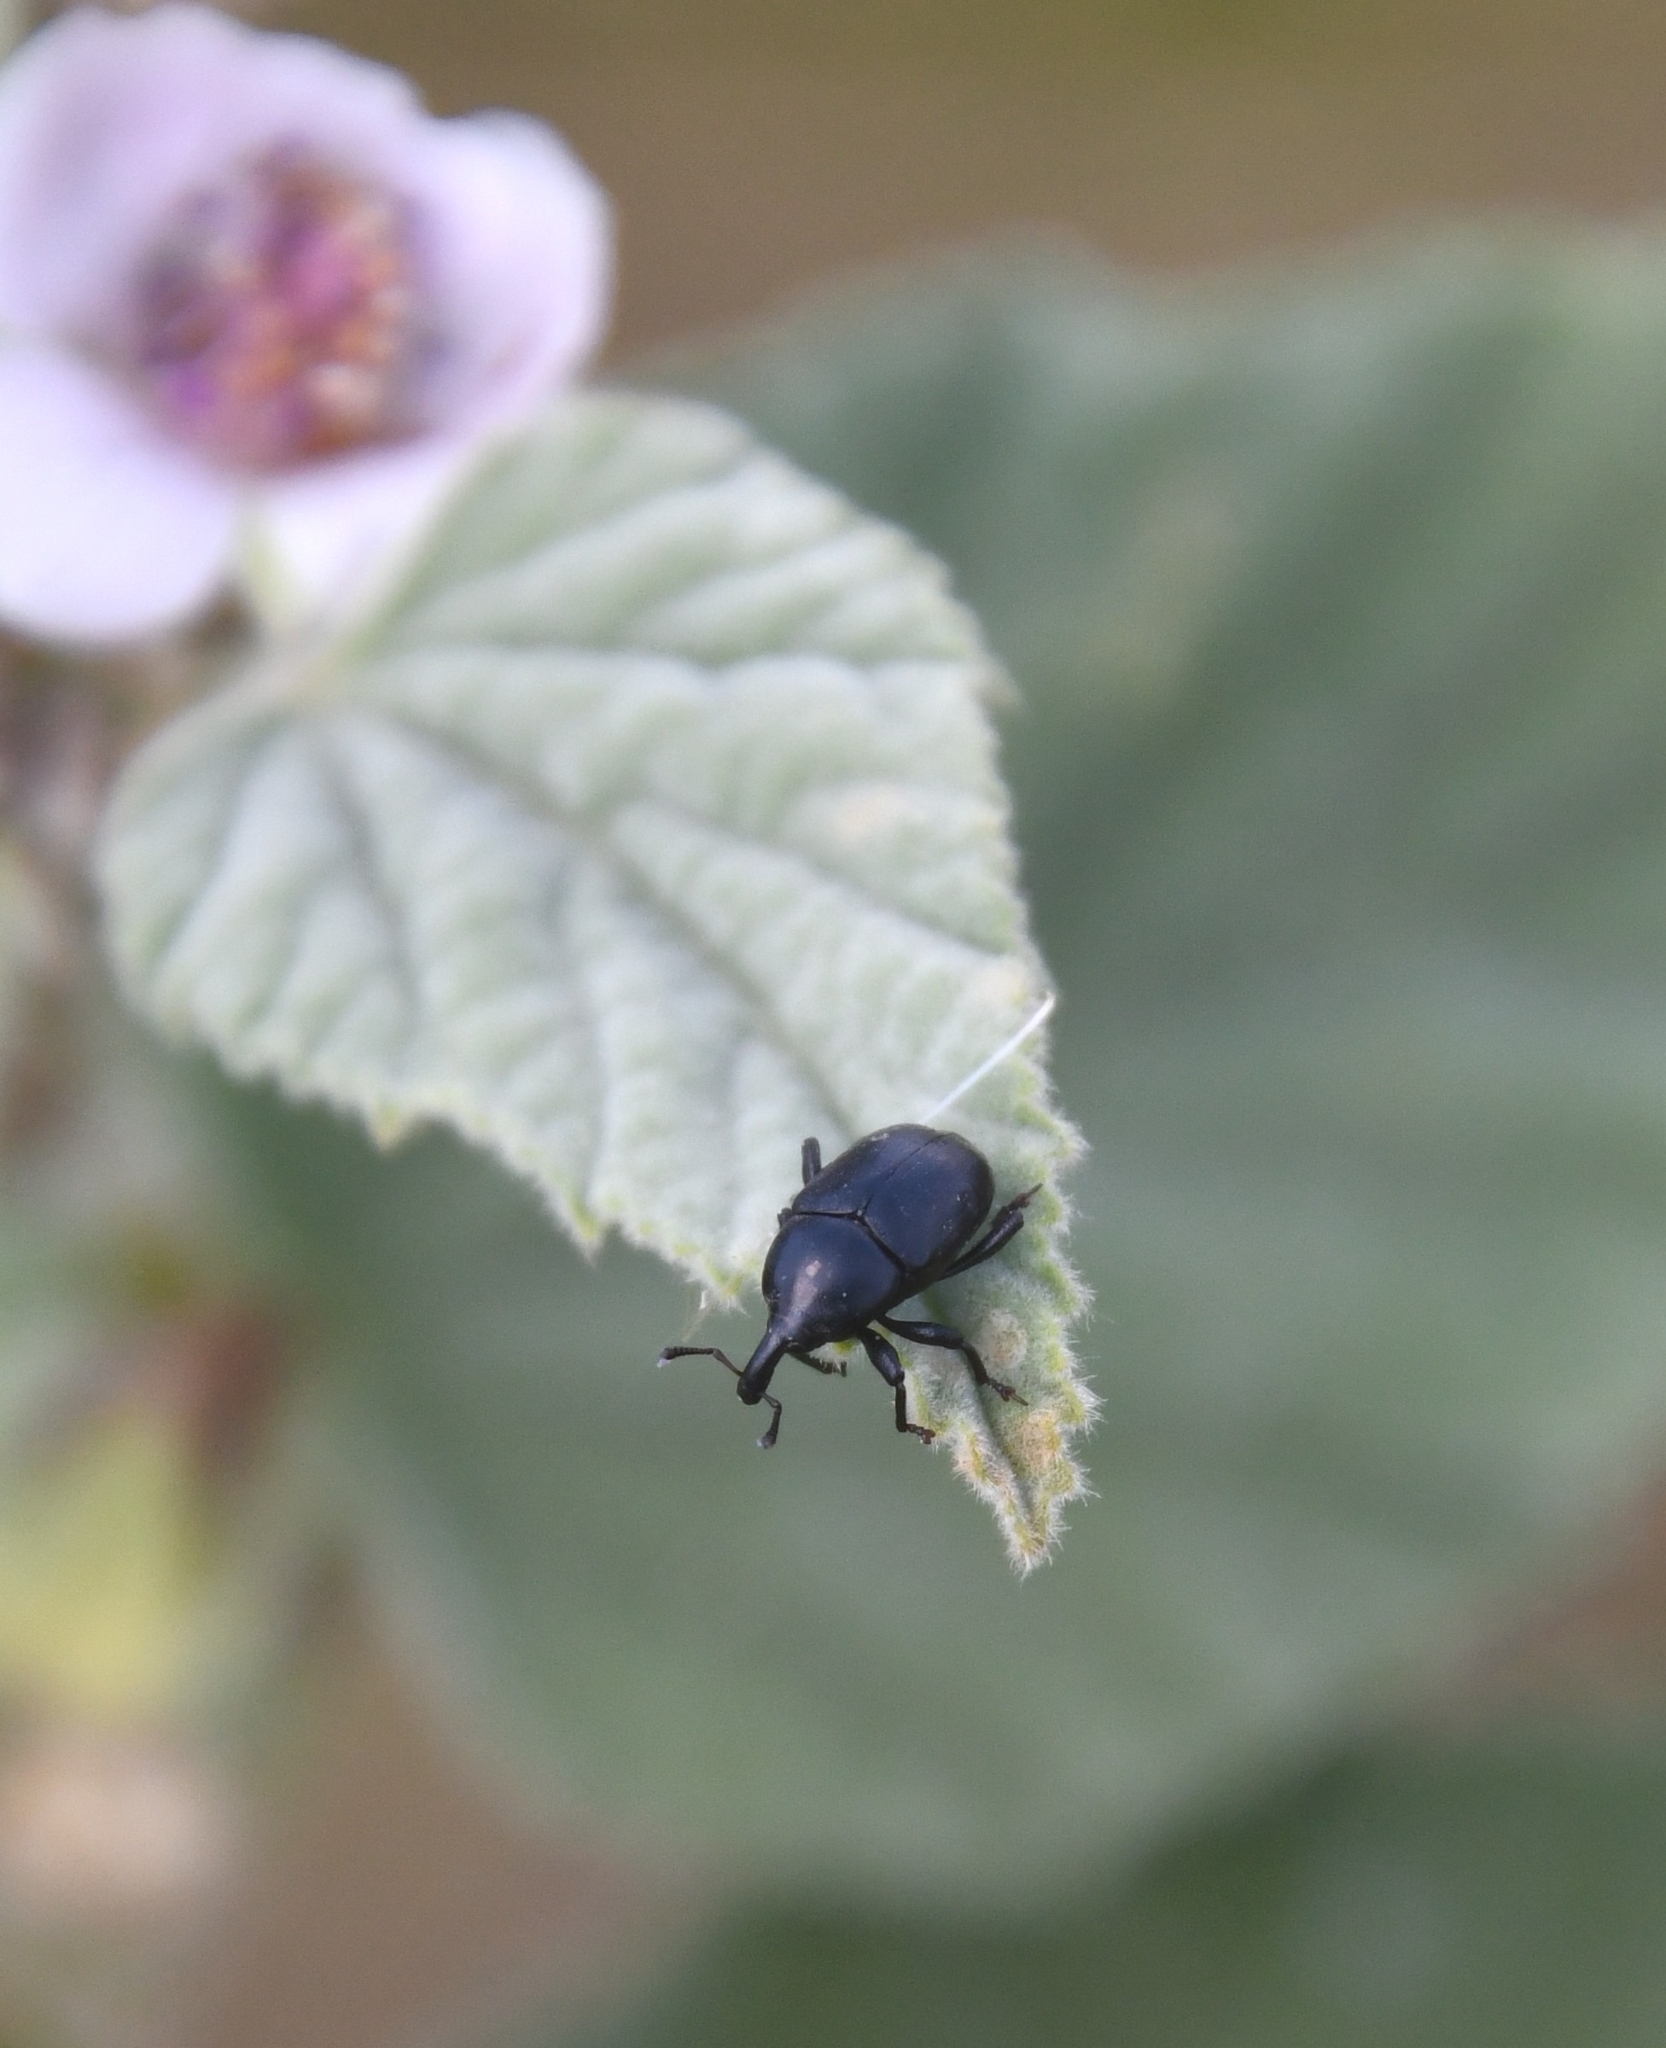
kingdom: Animalia
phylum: Arthropoda
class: Insecta
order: Coleoptera
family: Curculionidae
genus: Malvaevora
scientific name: Malvaevora timida
